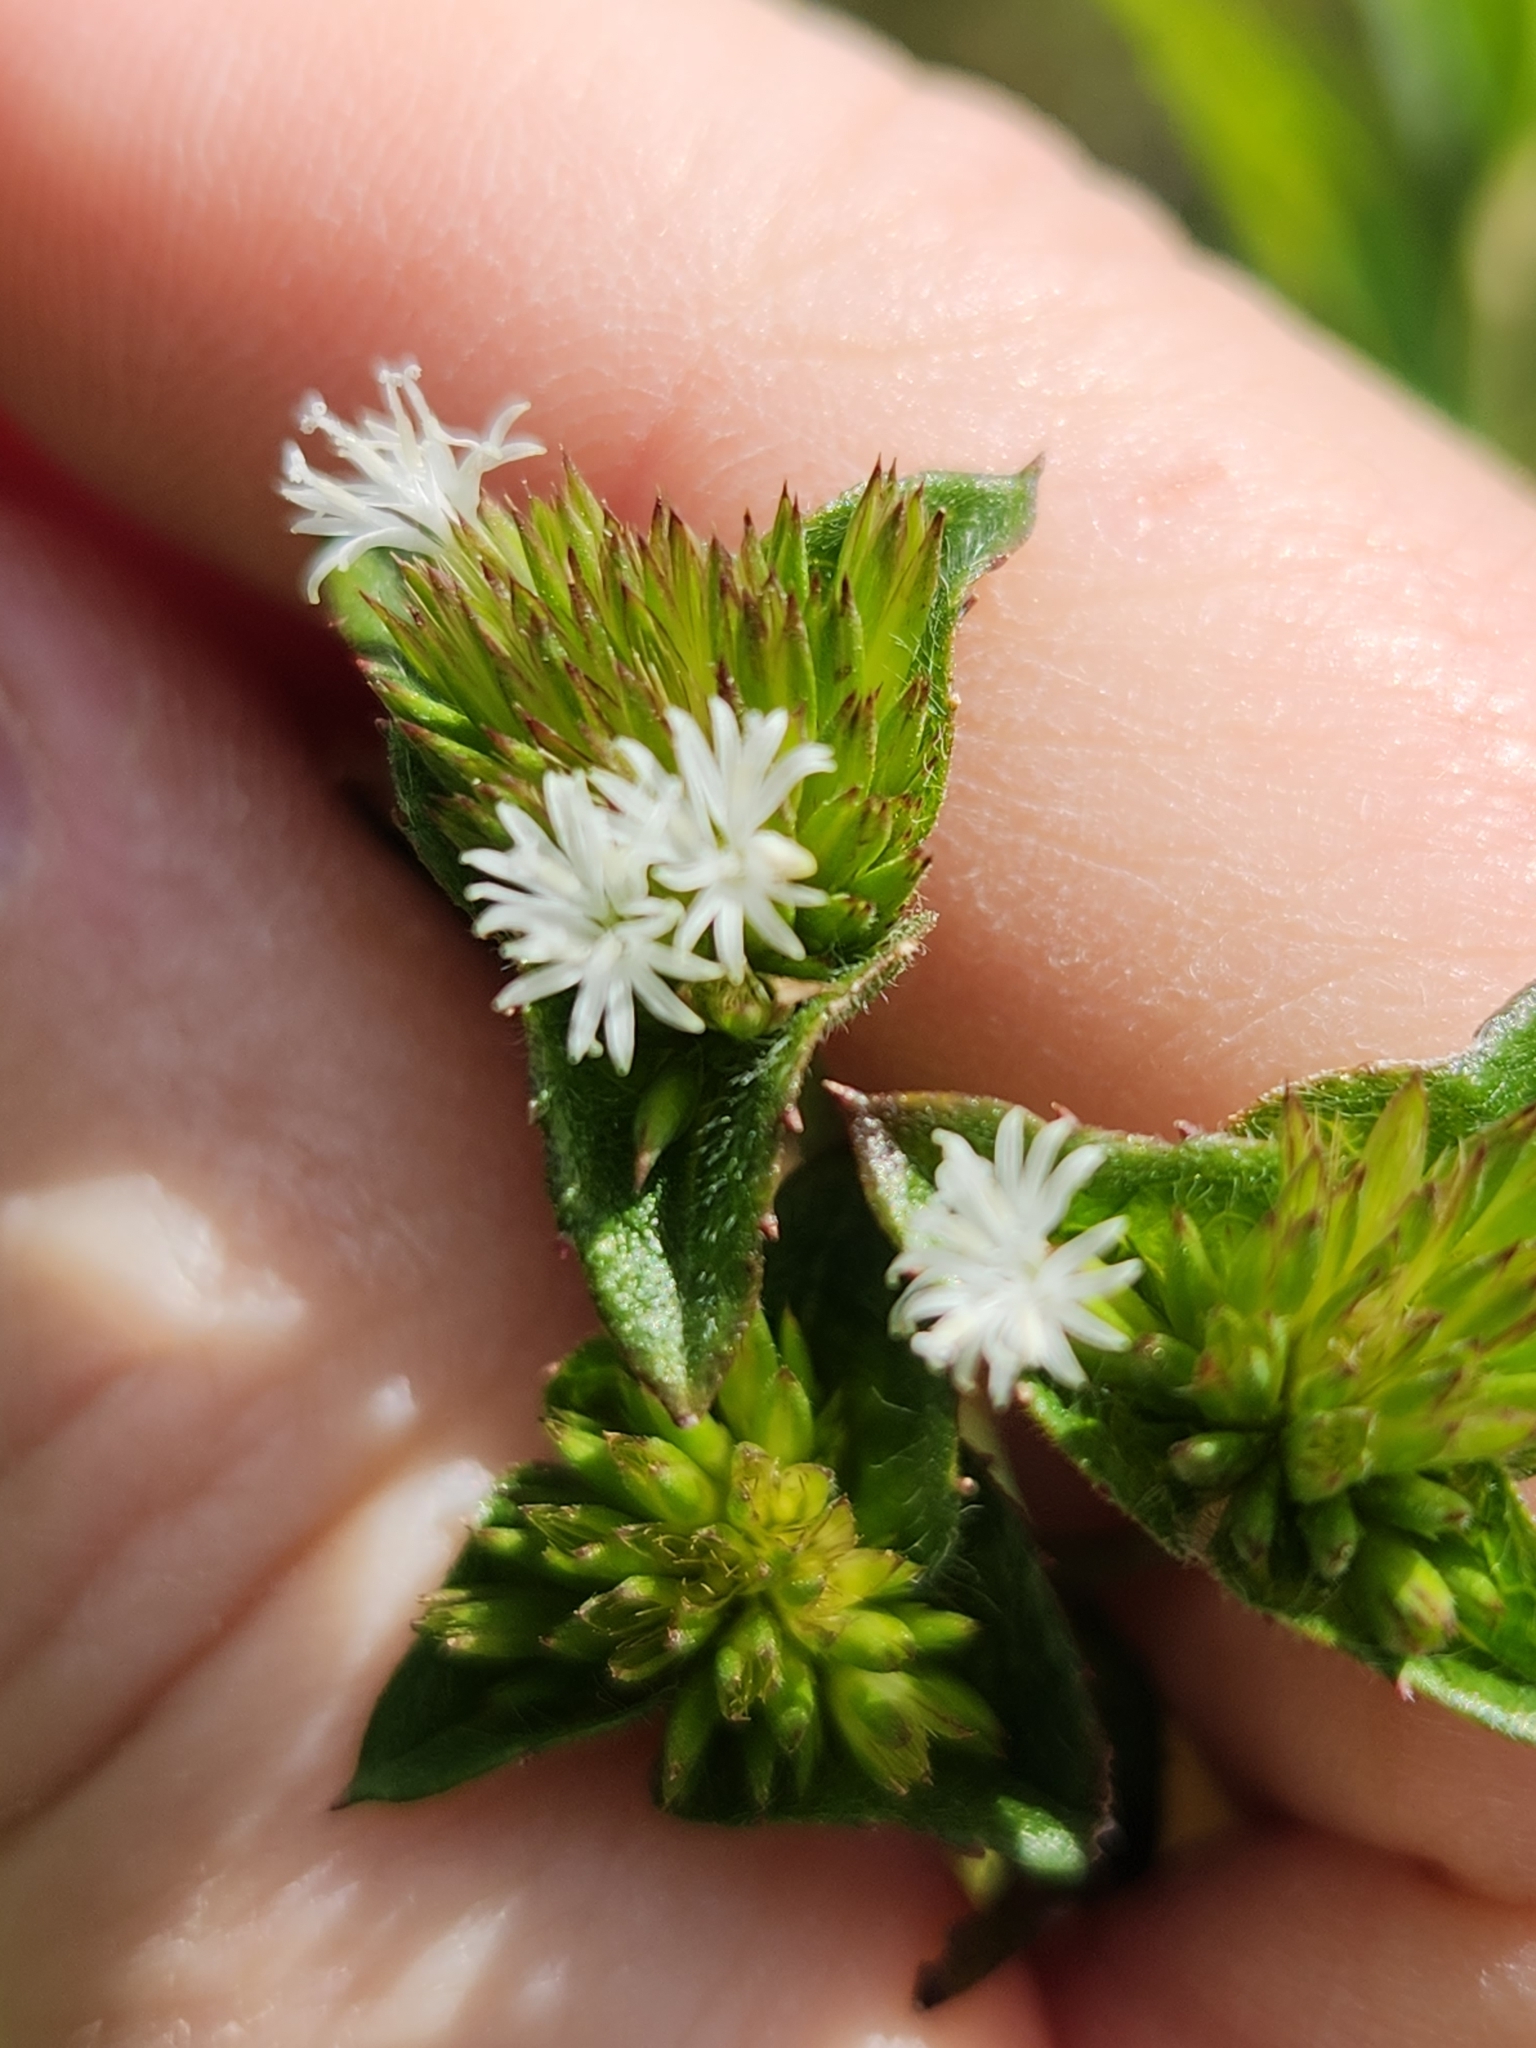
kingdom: Plantae
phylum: Tracheophyta
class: Magnoliopsida
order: Asterales
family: Asteraceae
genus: Elephantopus
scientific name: Elephantopus mollis
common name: Soft elephantsfoot
